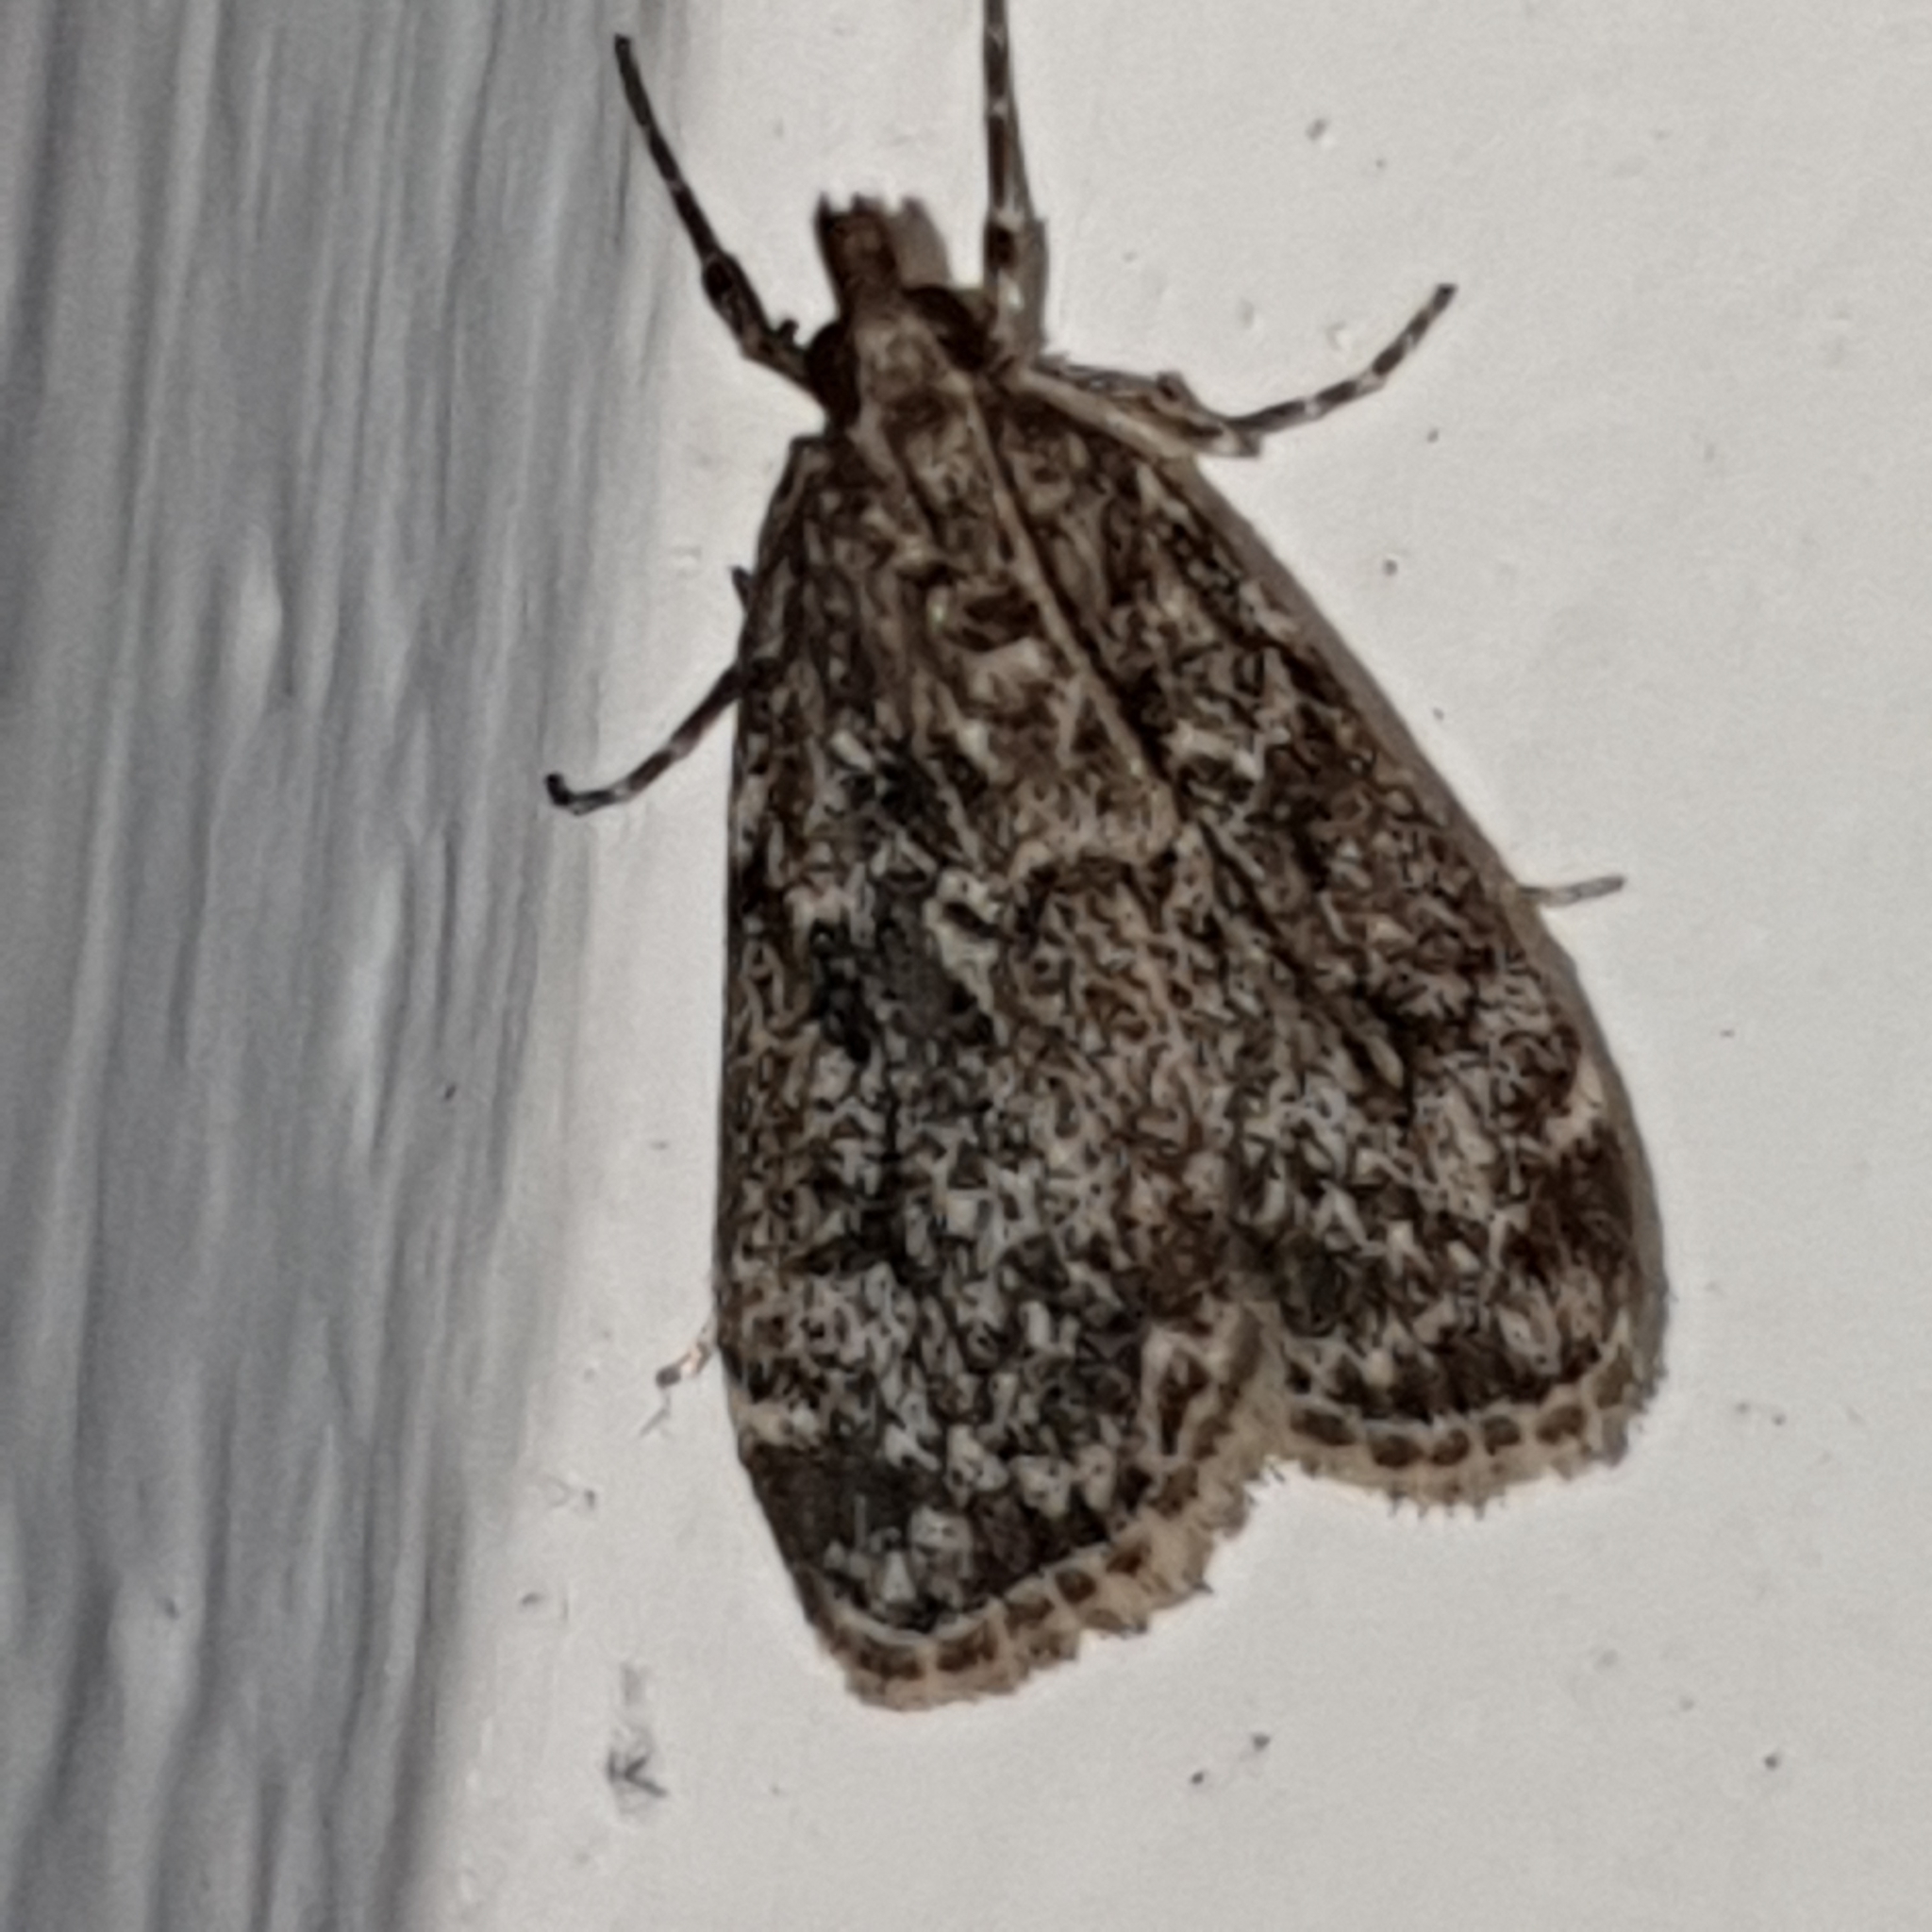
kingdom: Animalia
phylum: Arthropoda
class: Insecta
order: Lepidoptera
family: Crambidae
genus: Eudonia
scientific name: Eudonia truncicolella
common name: Ground-moss grey
